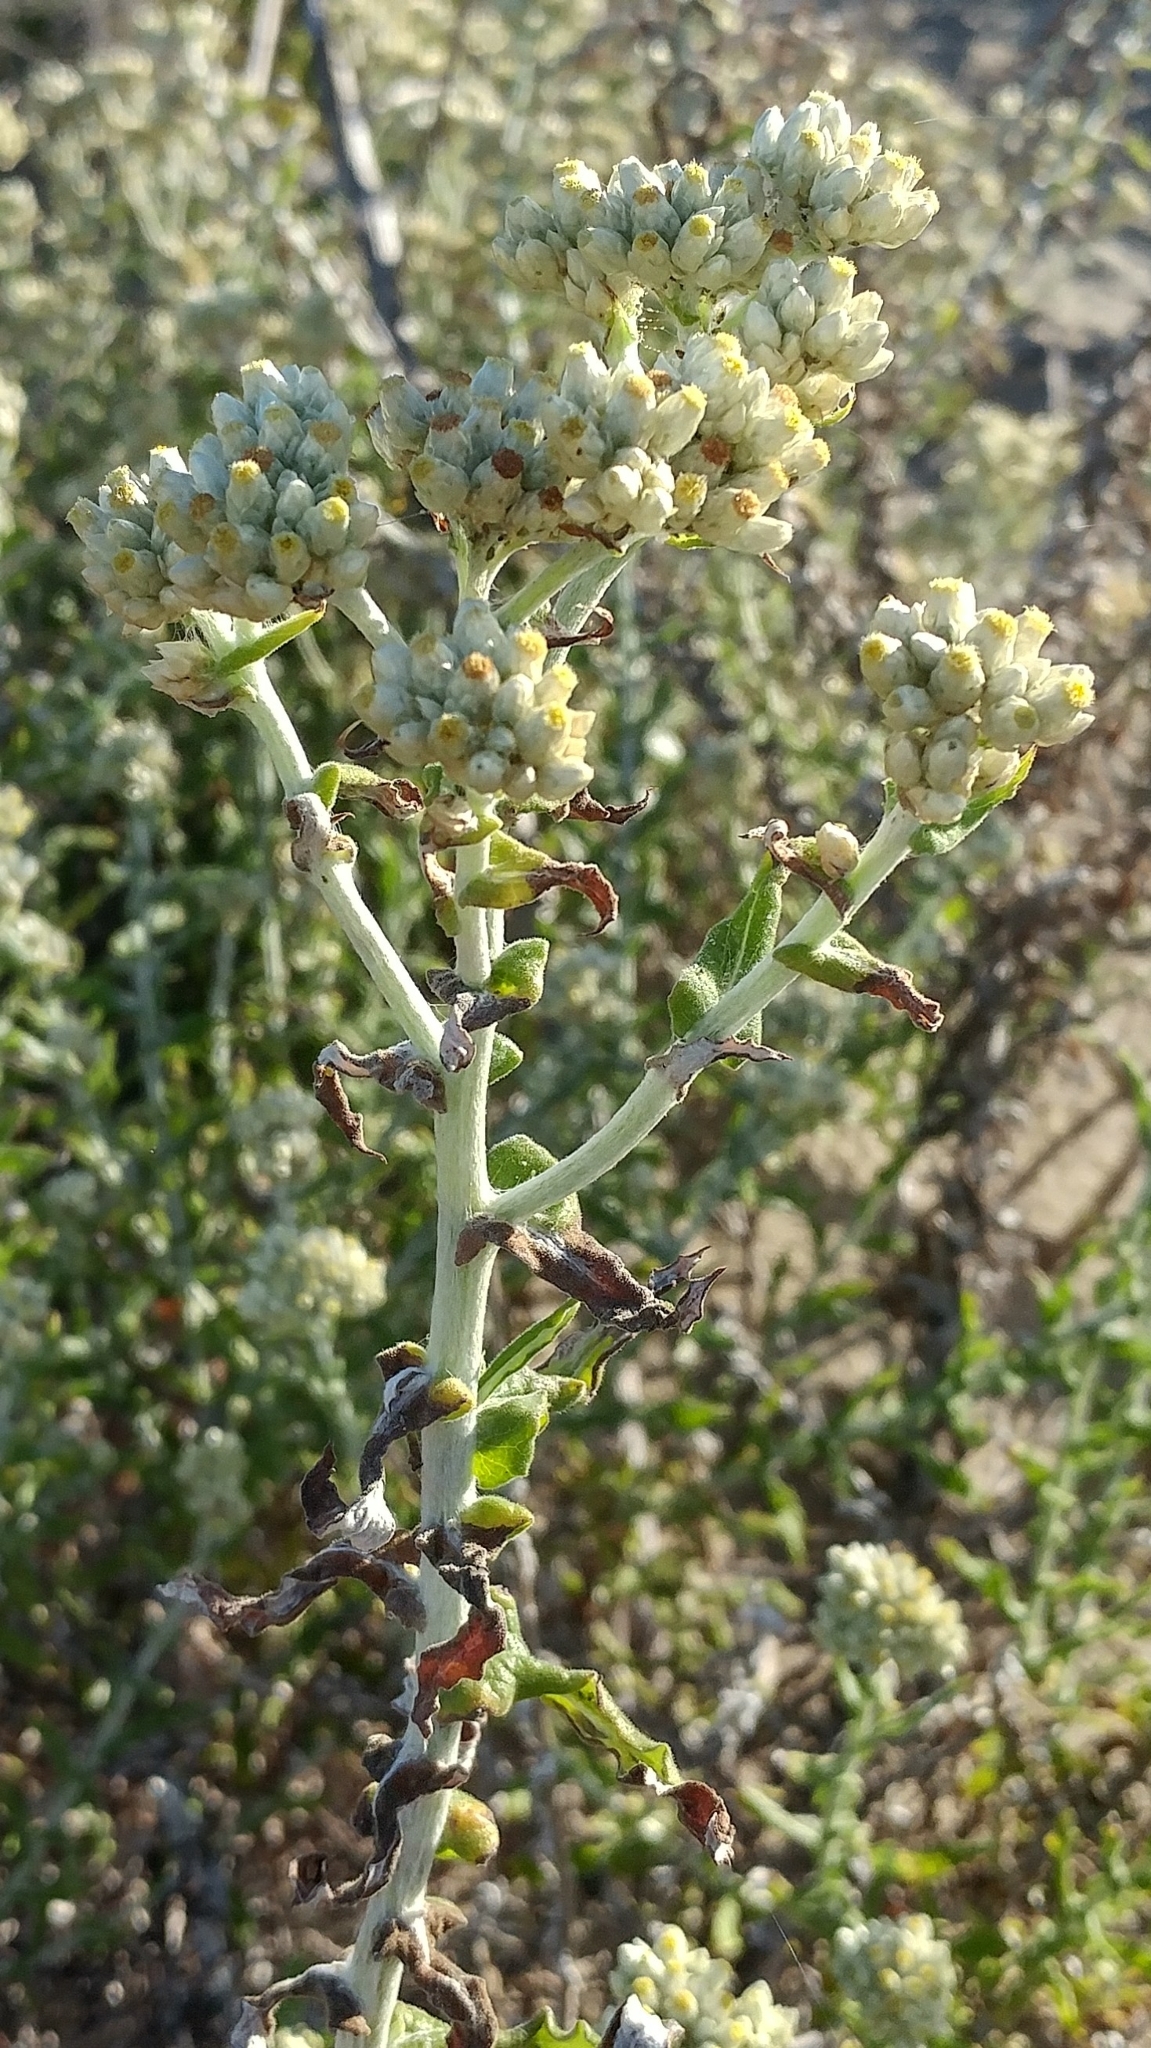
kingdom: Plantae
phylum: Tracheophyta
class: Magnoliopsida
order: Asterales
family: Asteraceae
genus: Pseudognaphalium
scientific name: Pseudognaphalium biolettii
